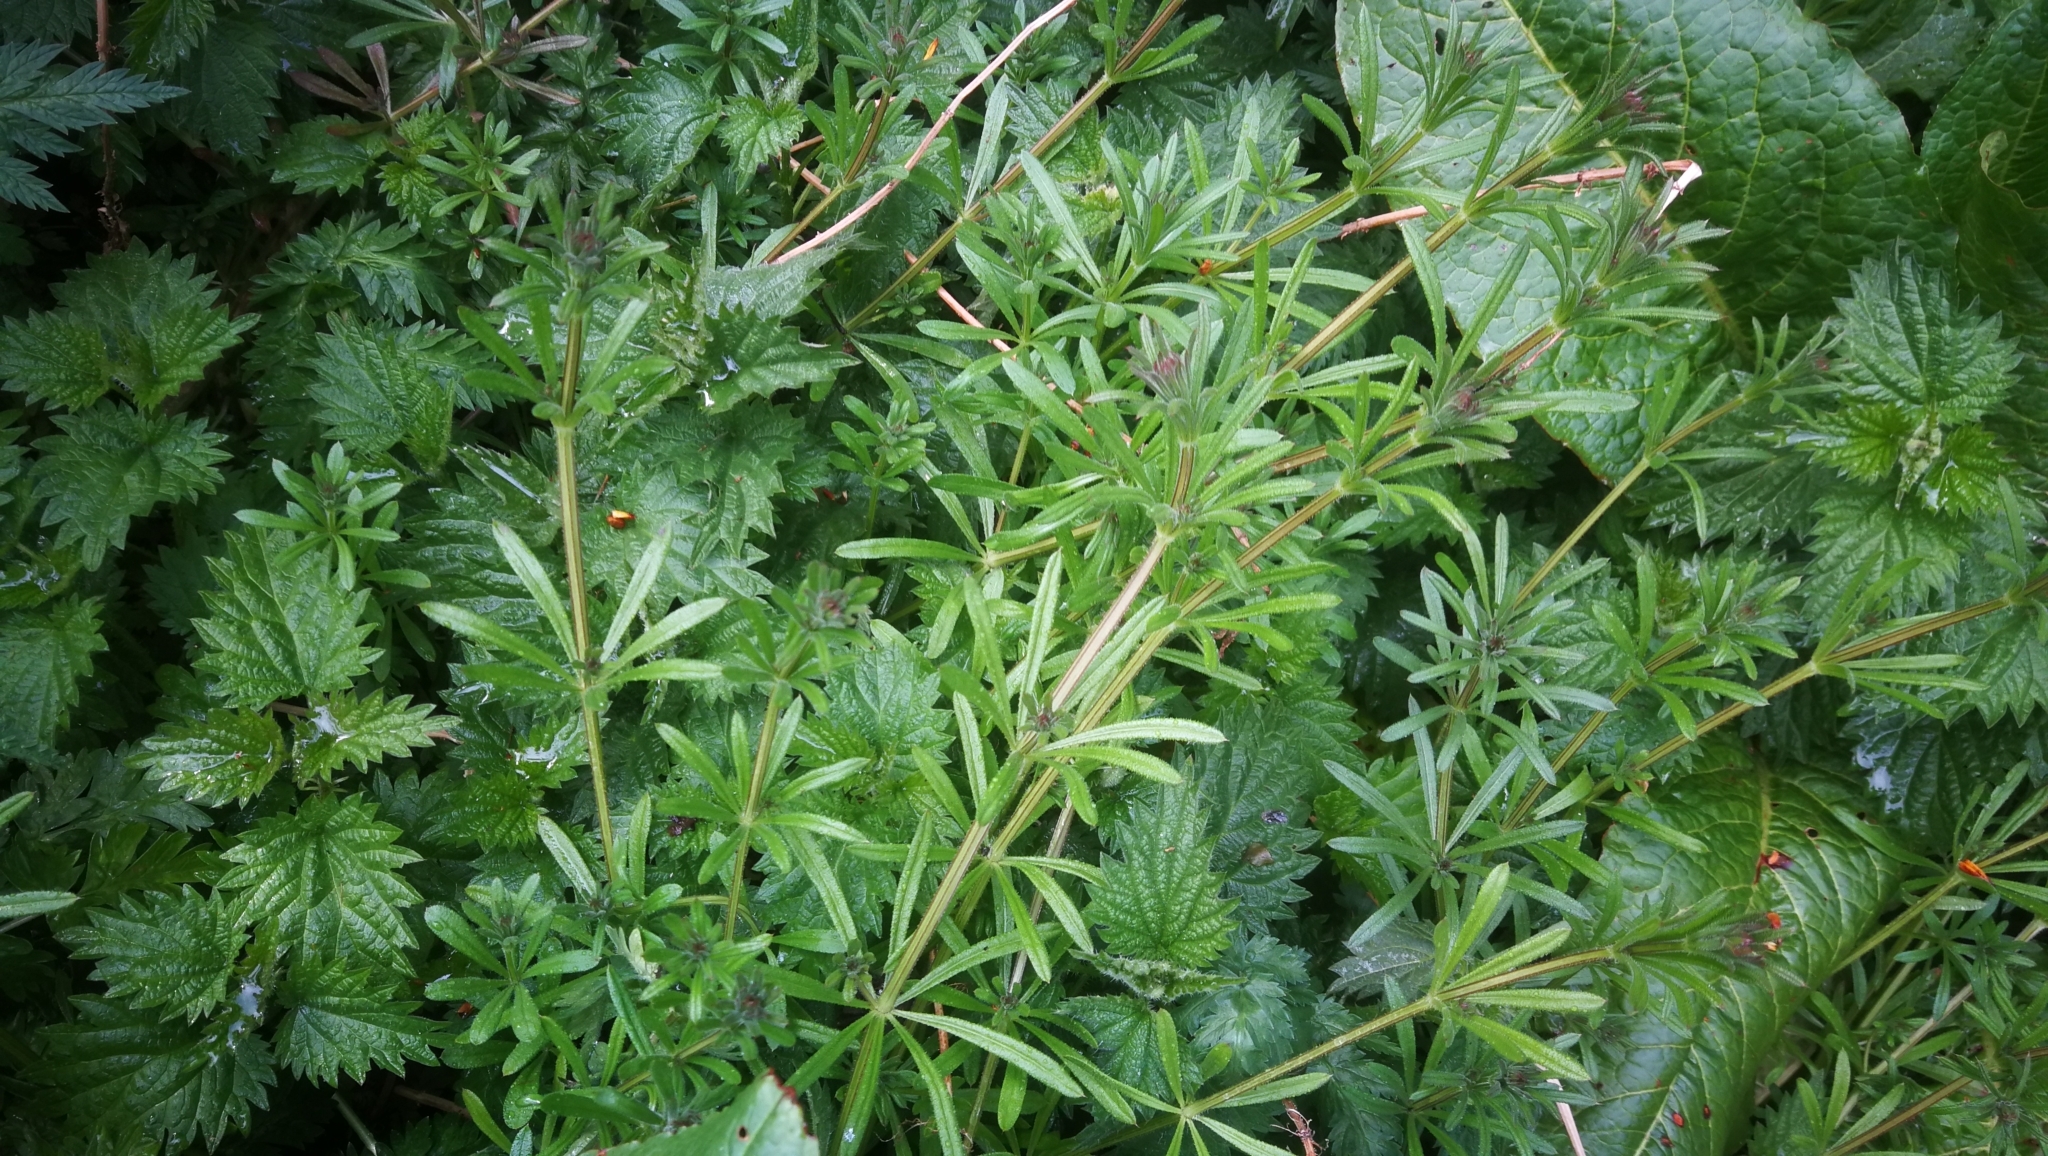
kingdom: Plantae
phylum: Tracheophyta
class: Magnoliopsida
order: Gentianales
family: Rubiaceae
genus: Galium
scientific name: Galium aparine
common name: Cleavers
